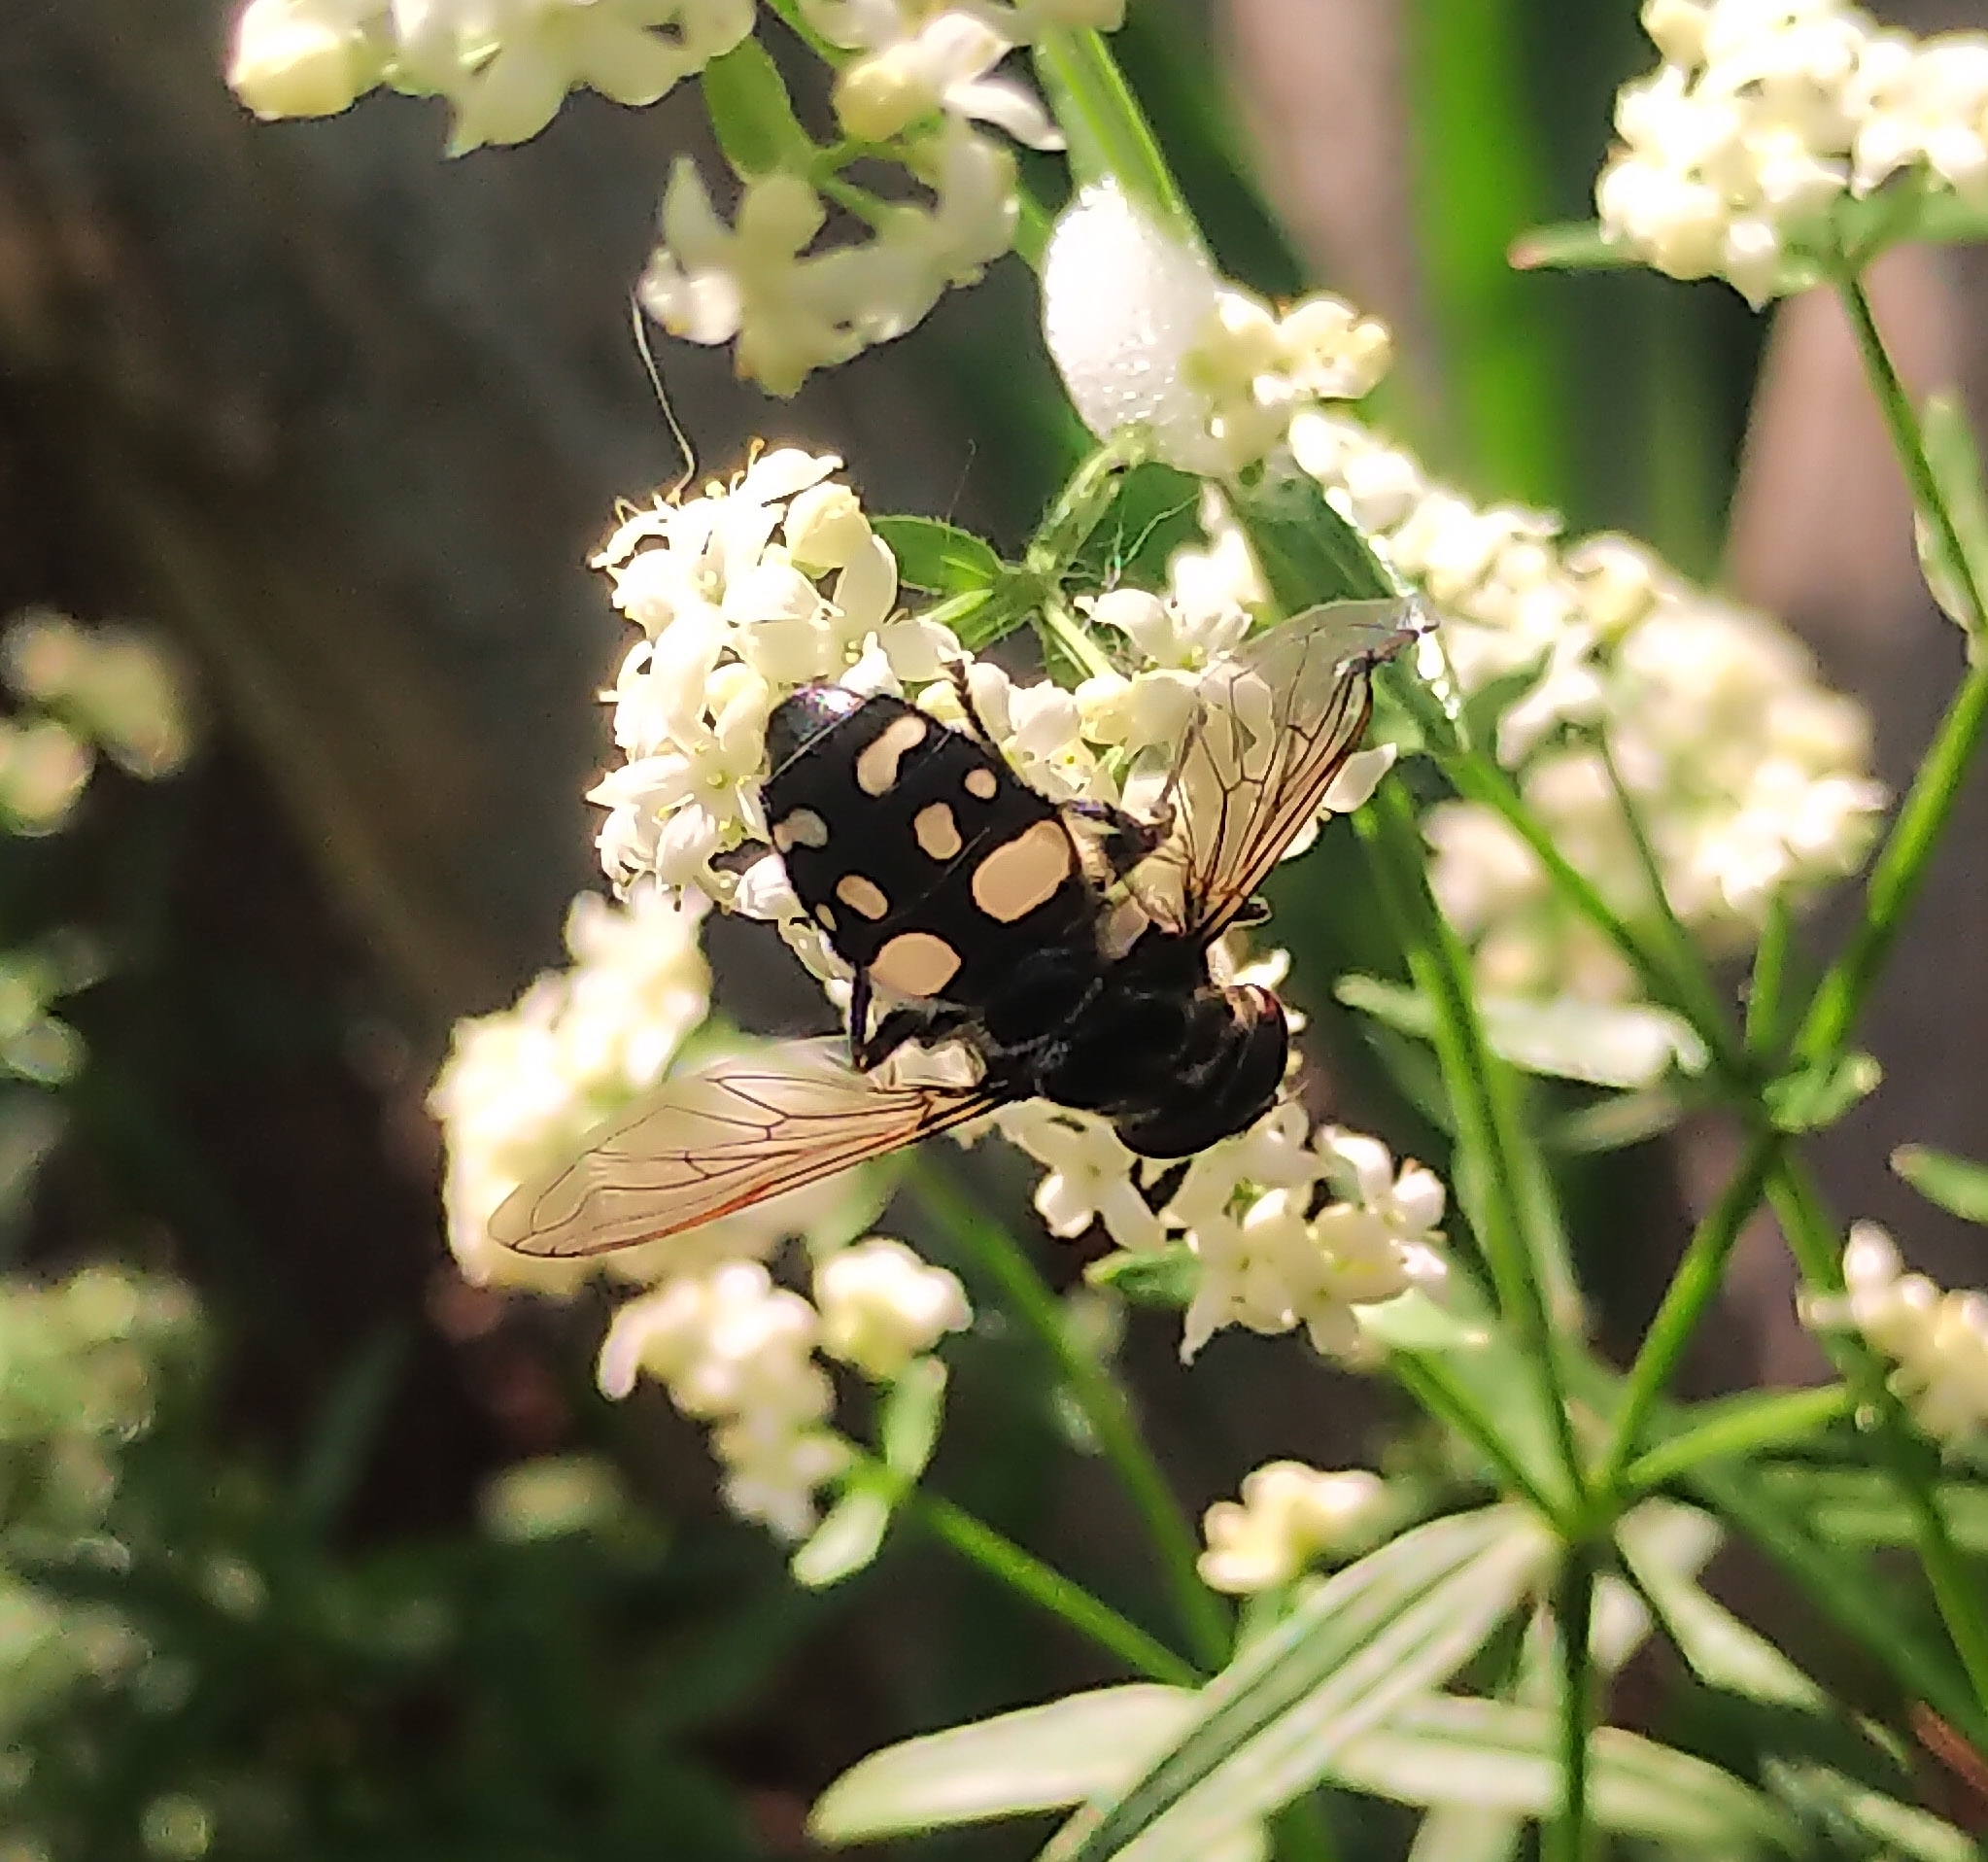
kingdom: Animalia
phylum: Arthropoda
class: Insecta
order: Diptera
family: Syrphidae
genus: Sericomyia
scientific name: Sericomyia lata
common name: White-spotted pond fly
